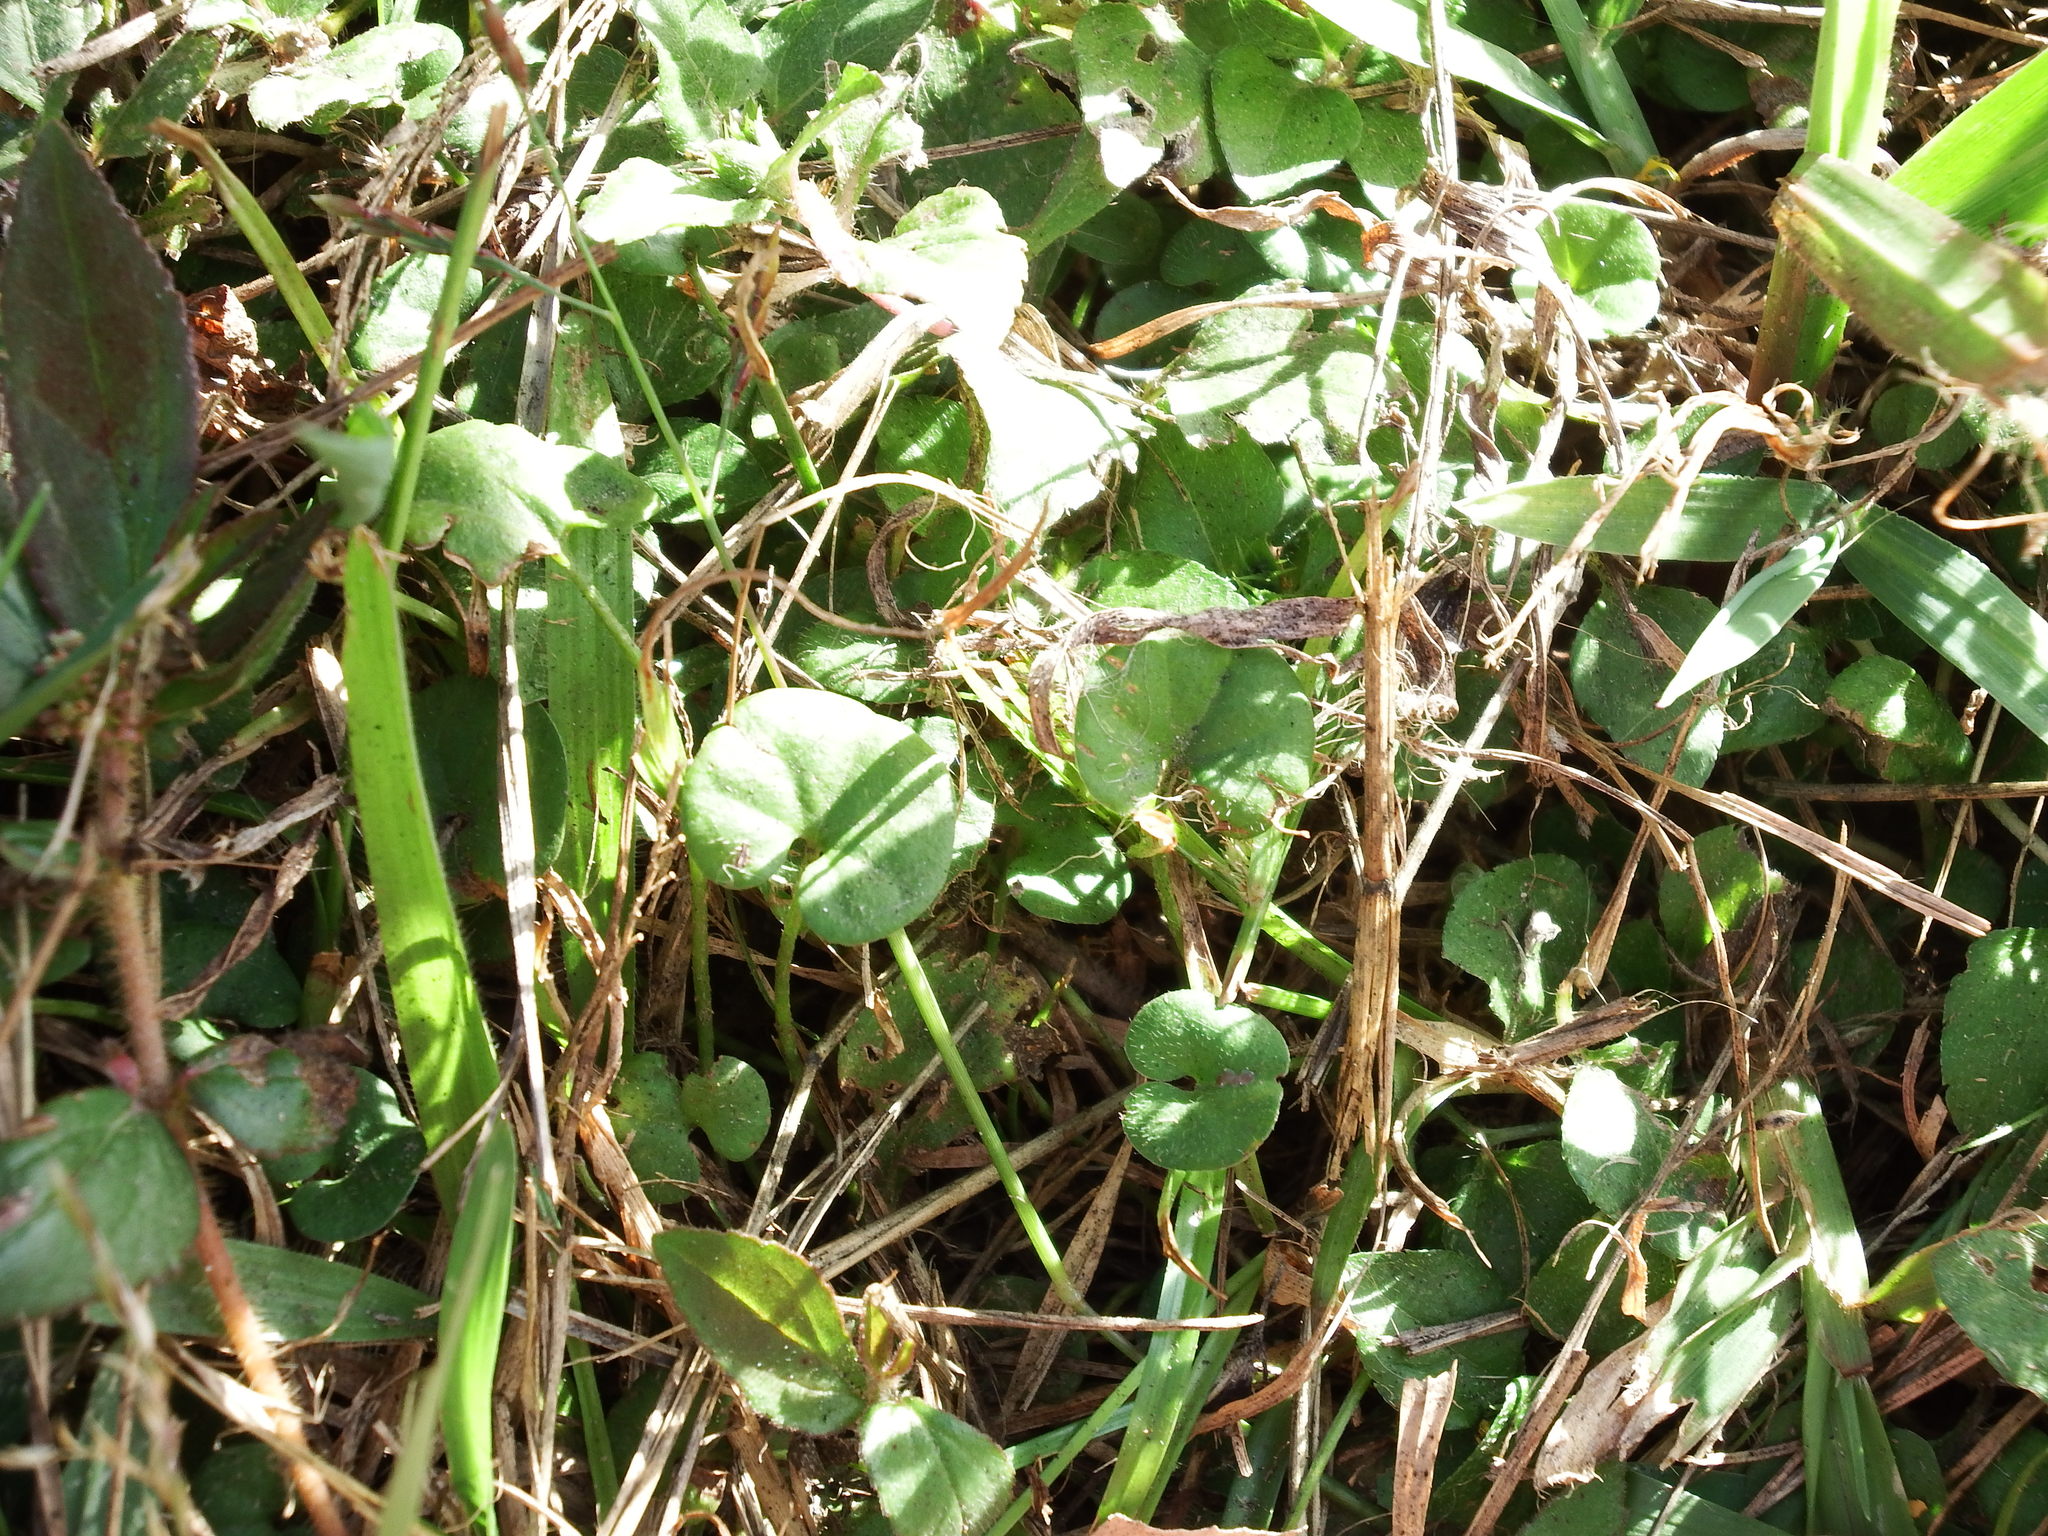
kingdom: Plantae
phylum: Tracheophyta
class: Magnoliopsida
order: Solanales
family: Convolvulaceae
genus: Dichondra
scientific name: Dichondra micrantha
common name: Kidneyweed
